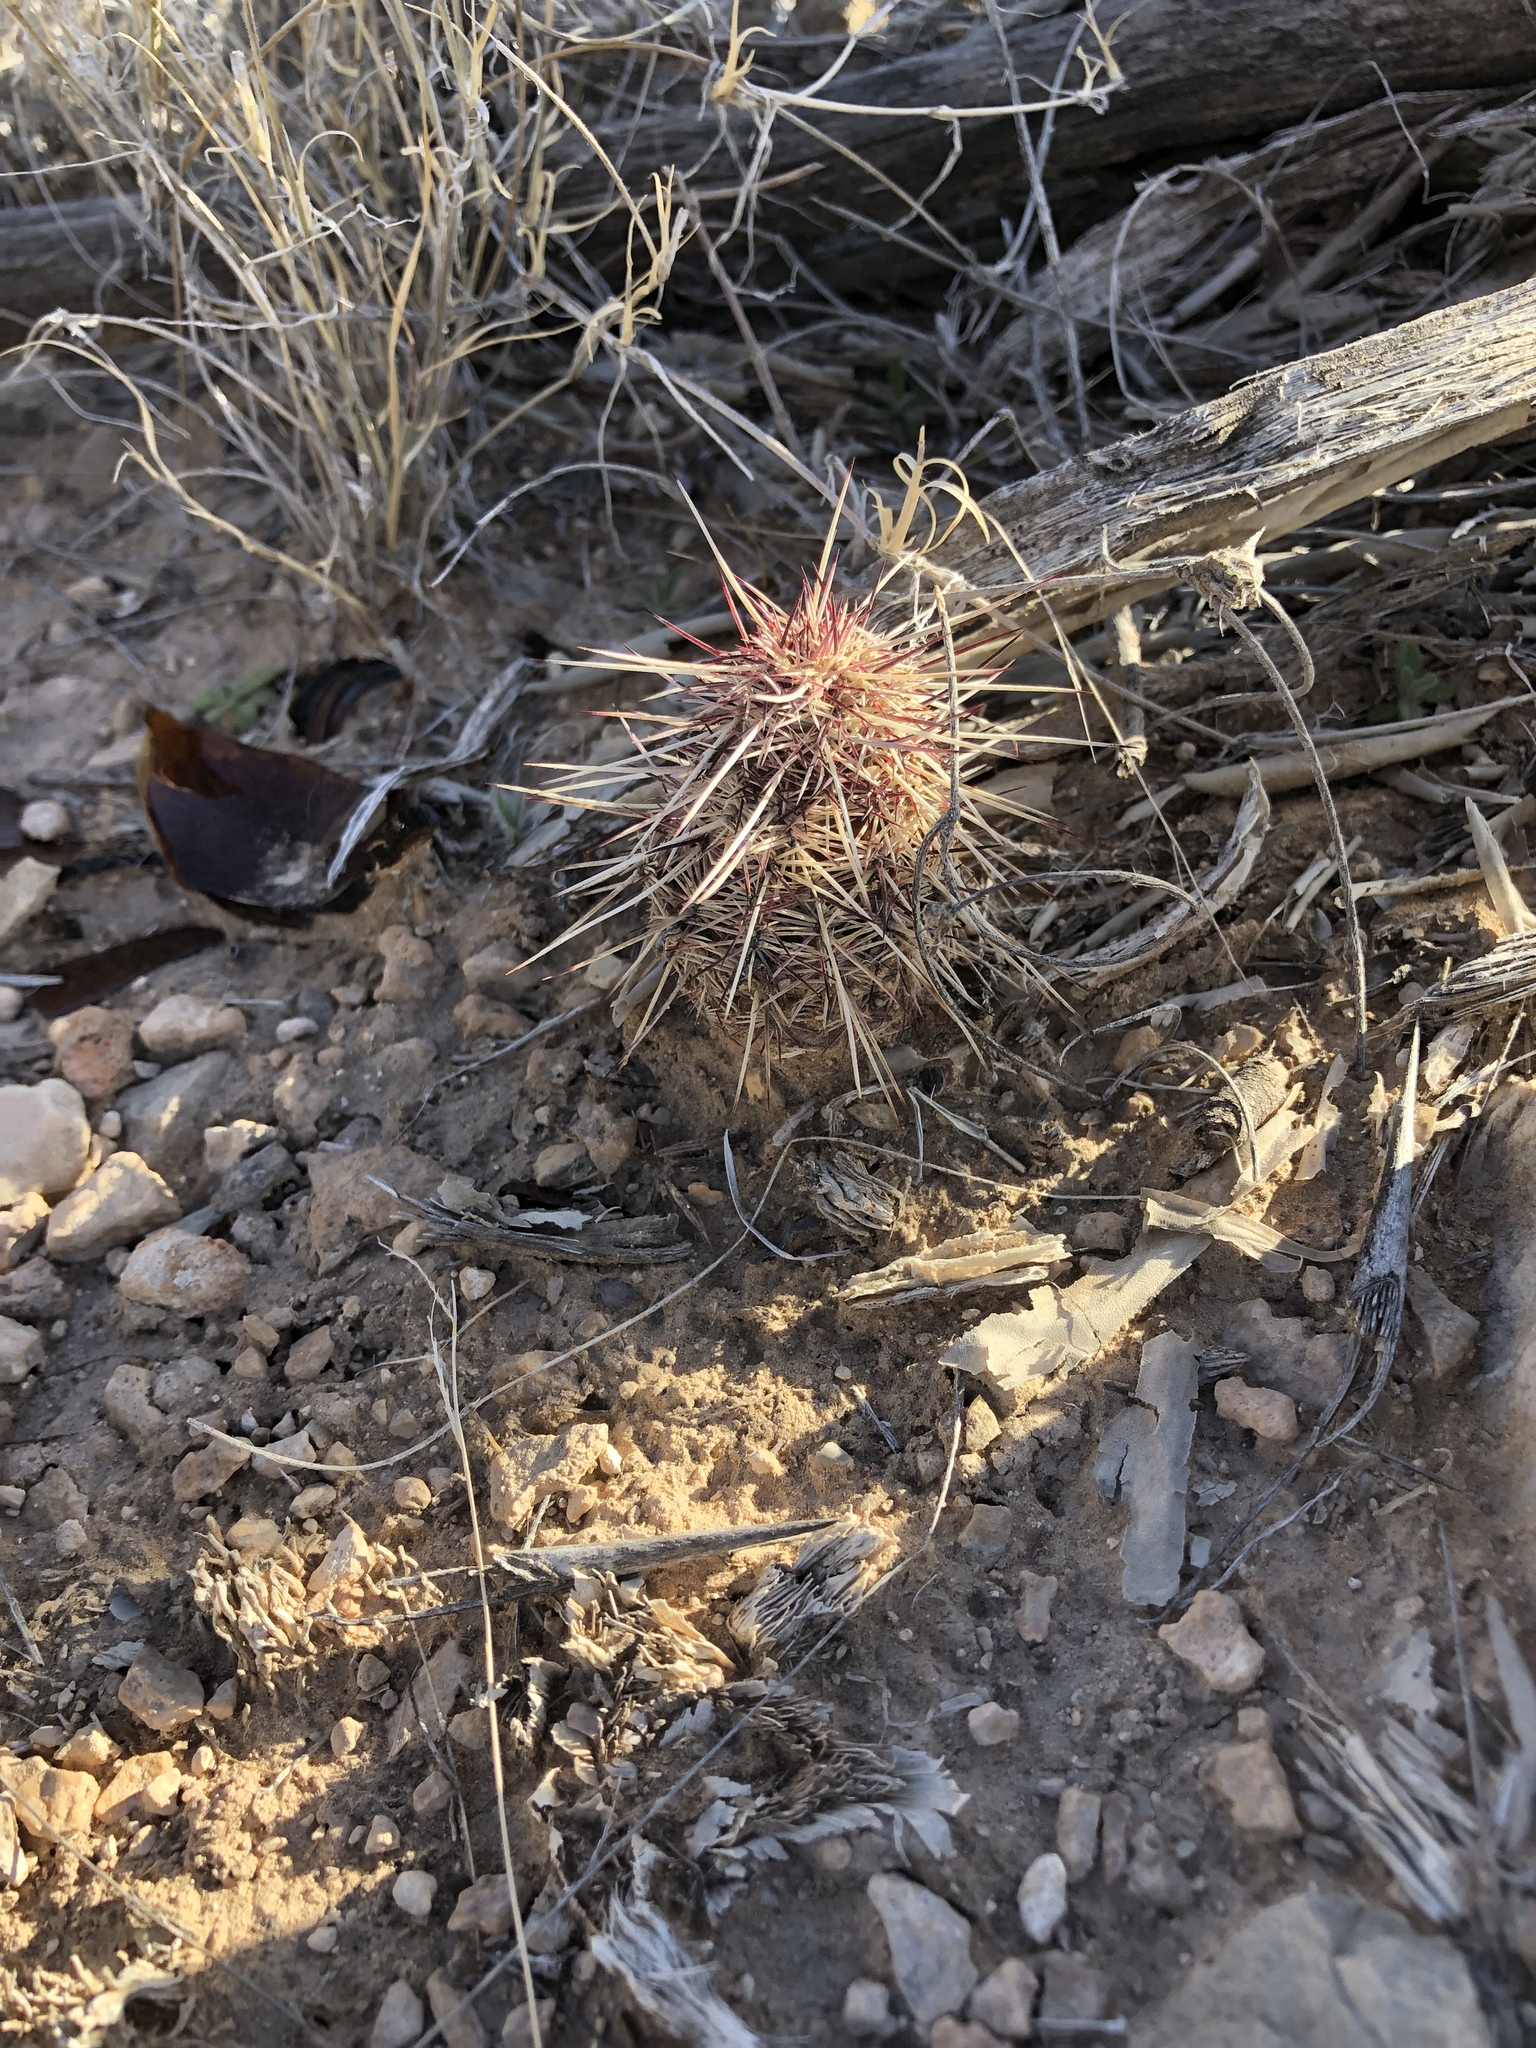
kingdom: Plantae
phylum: Tracheophyta
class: Magnoliopsida
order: Caryophyllales
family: Cactaceae
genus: Echinocereus
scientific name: Echinocereus viridiflorus
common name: Nylon hedgehog cactus
